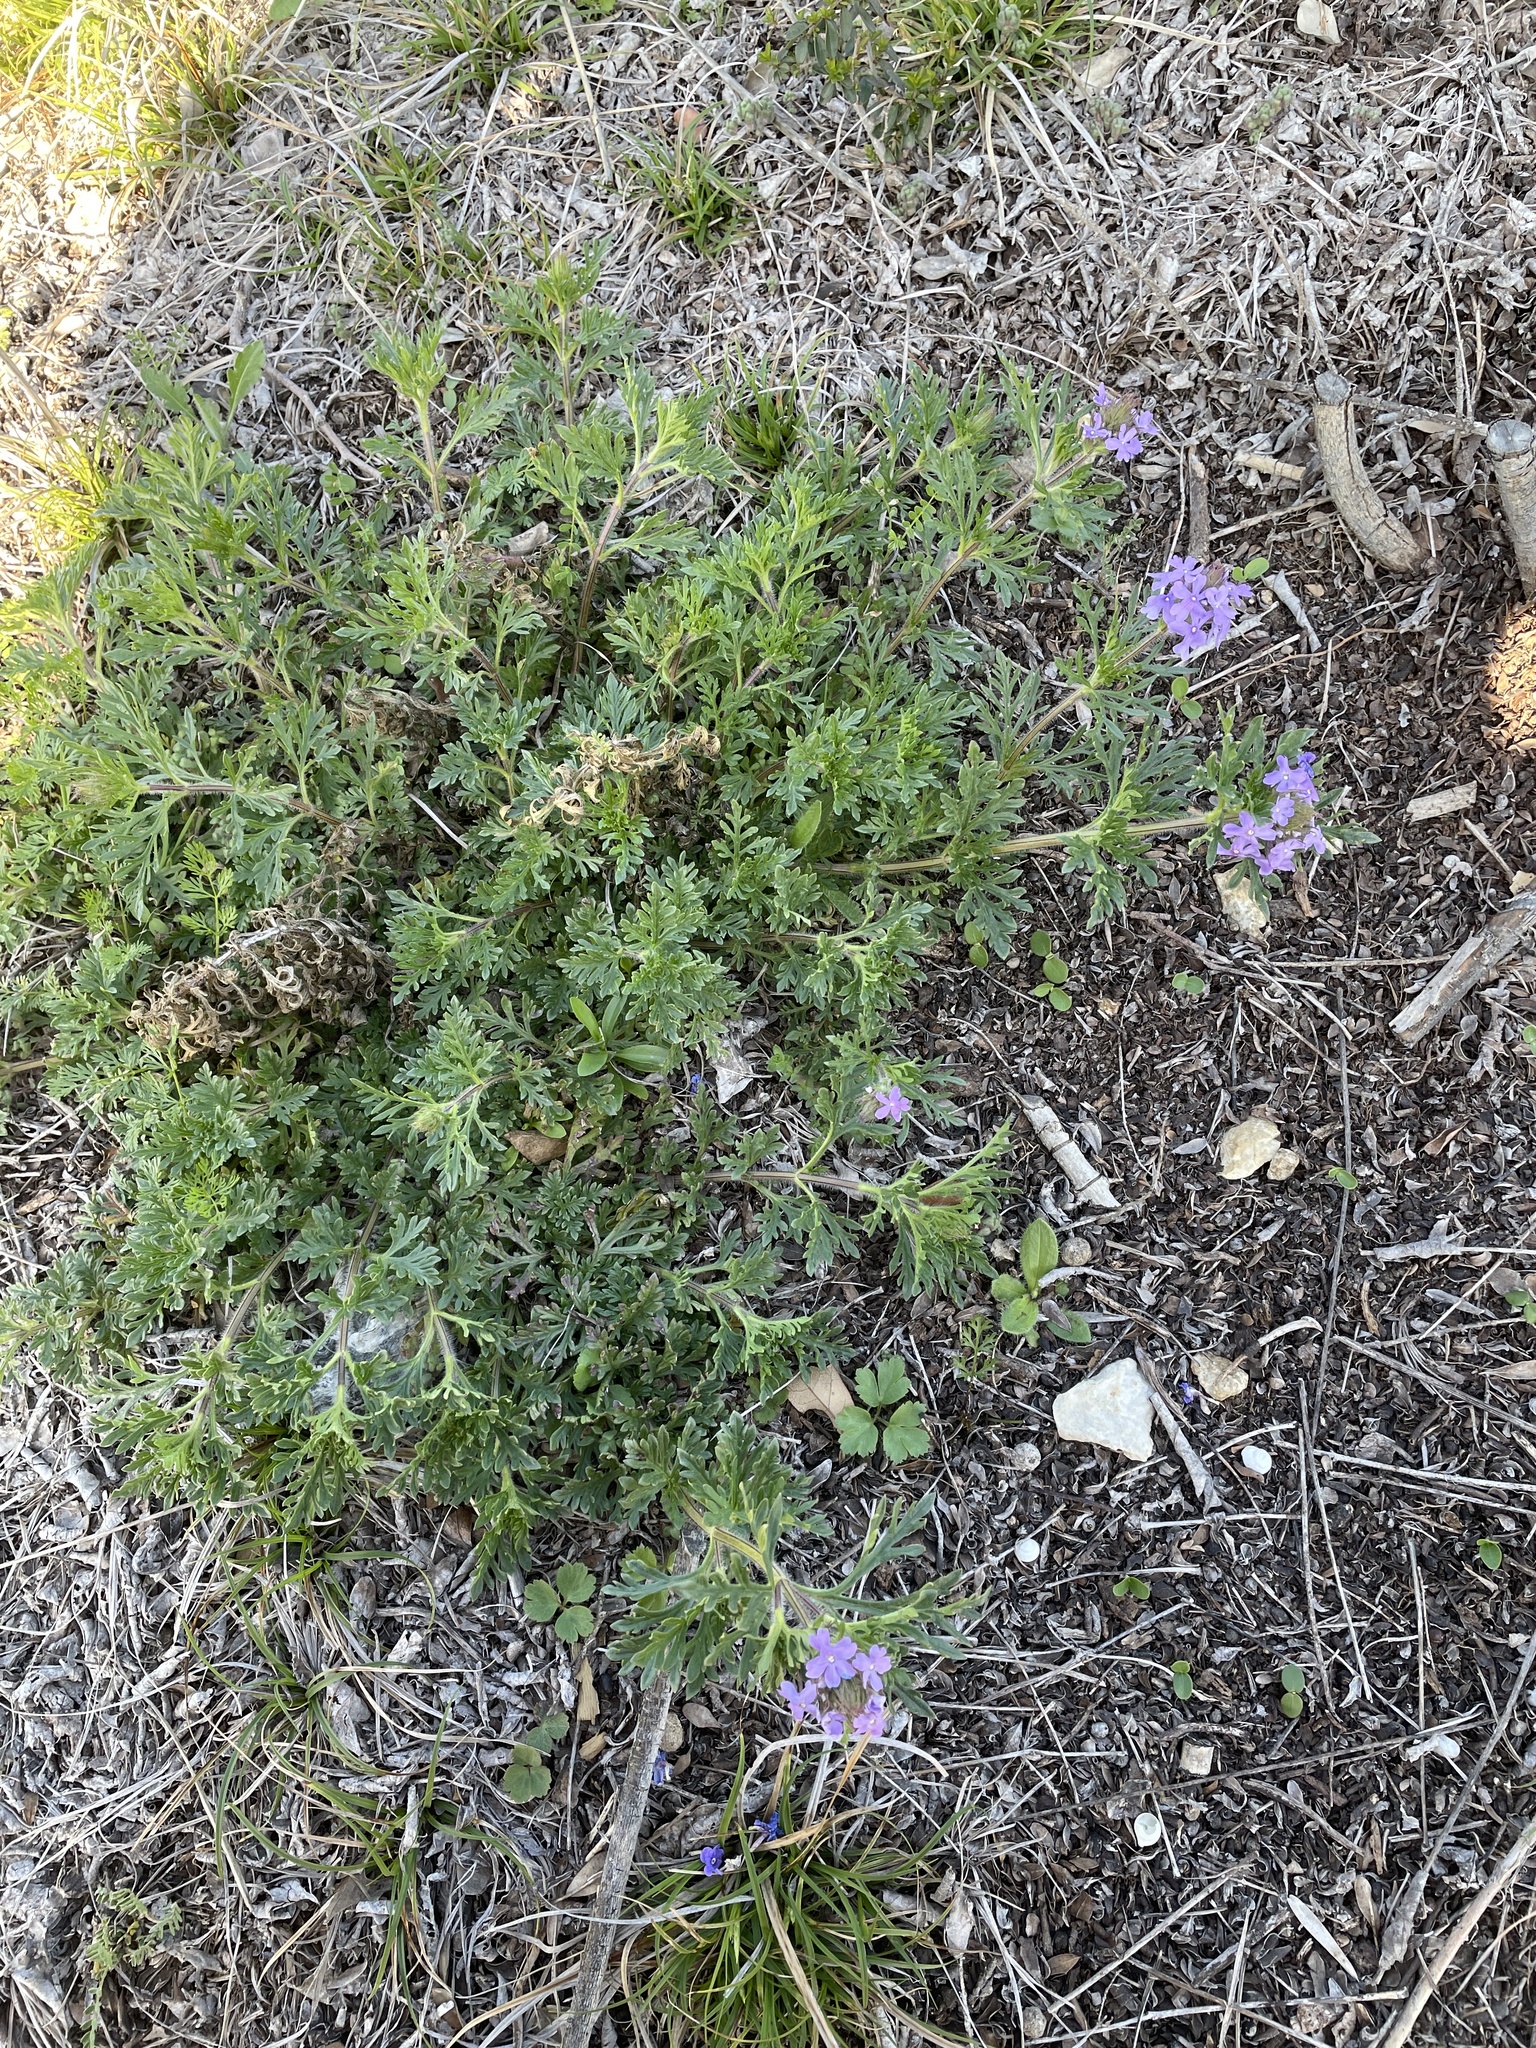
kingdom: Plantae
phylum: Tracheophyta
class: Magnoliopsida
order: Lamiales
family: Verbenaceae
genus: Verbena
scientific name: Verbena bipinnatifida
